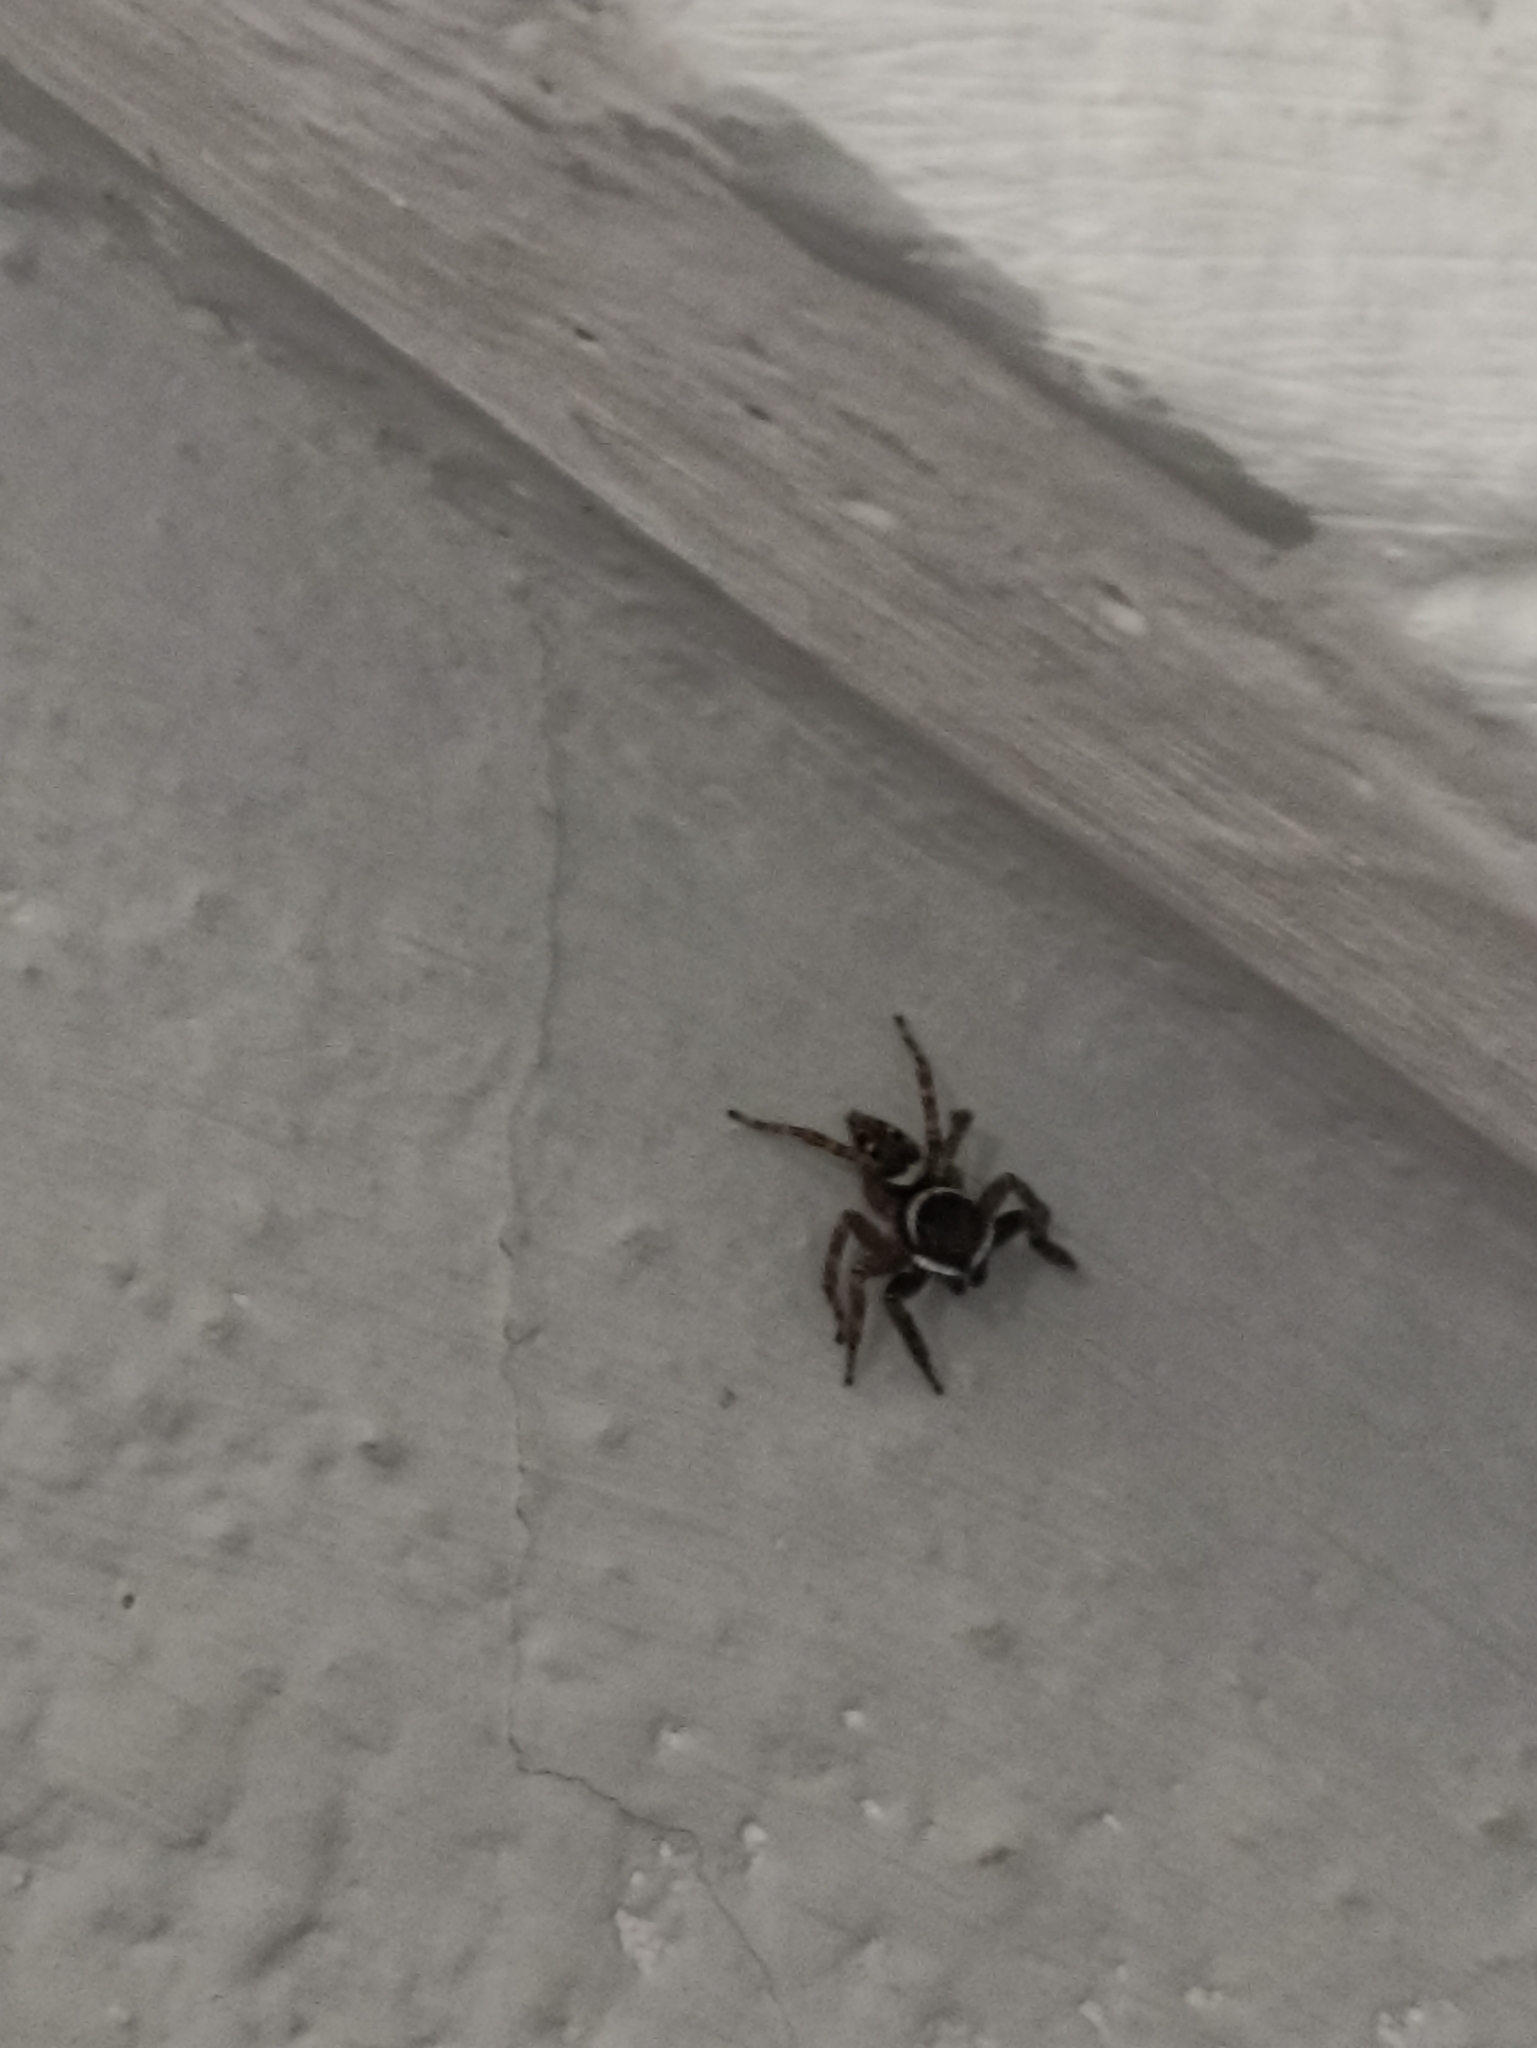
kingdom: Animalia
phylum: Arthropoda
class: Arachnida
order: Araneae
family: Salticidae
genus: Hasarius
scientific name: Hasarius adansoni
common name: Jumping spider
